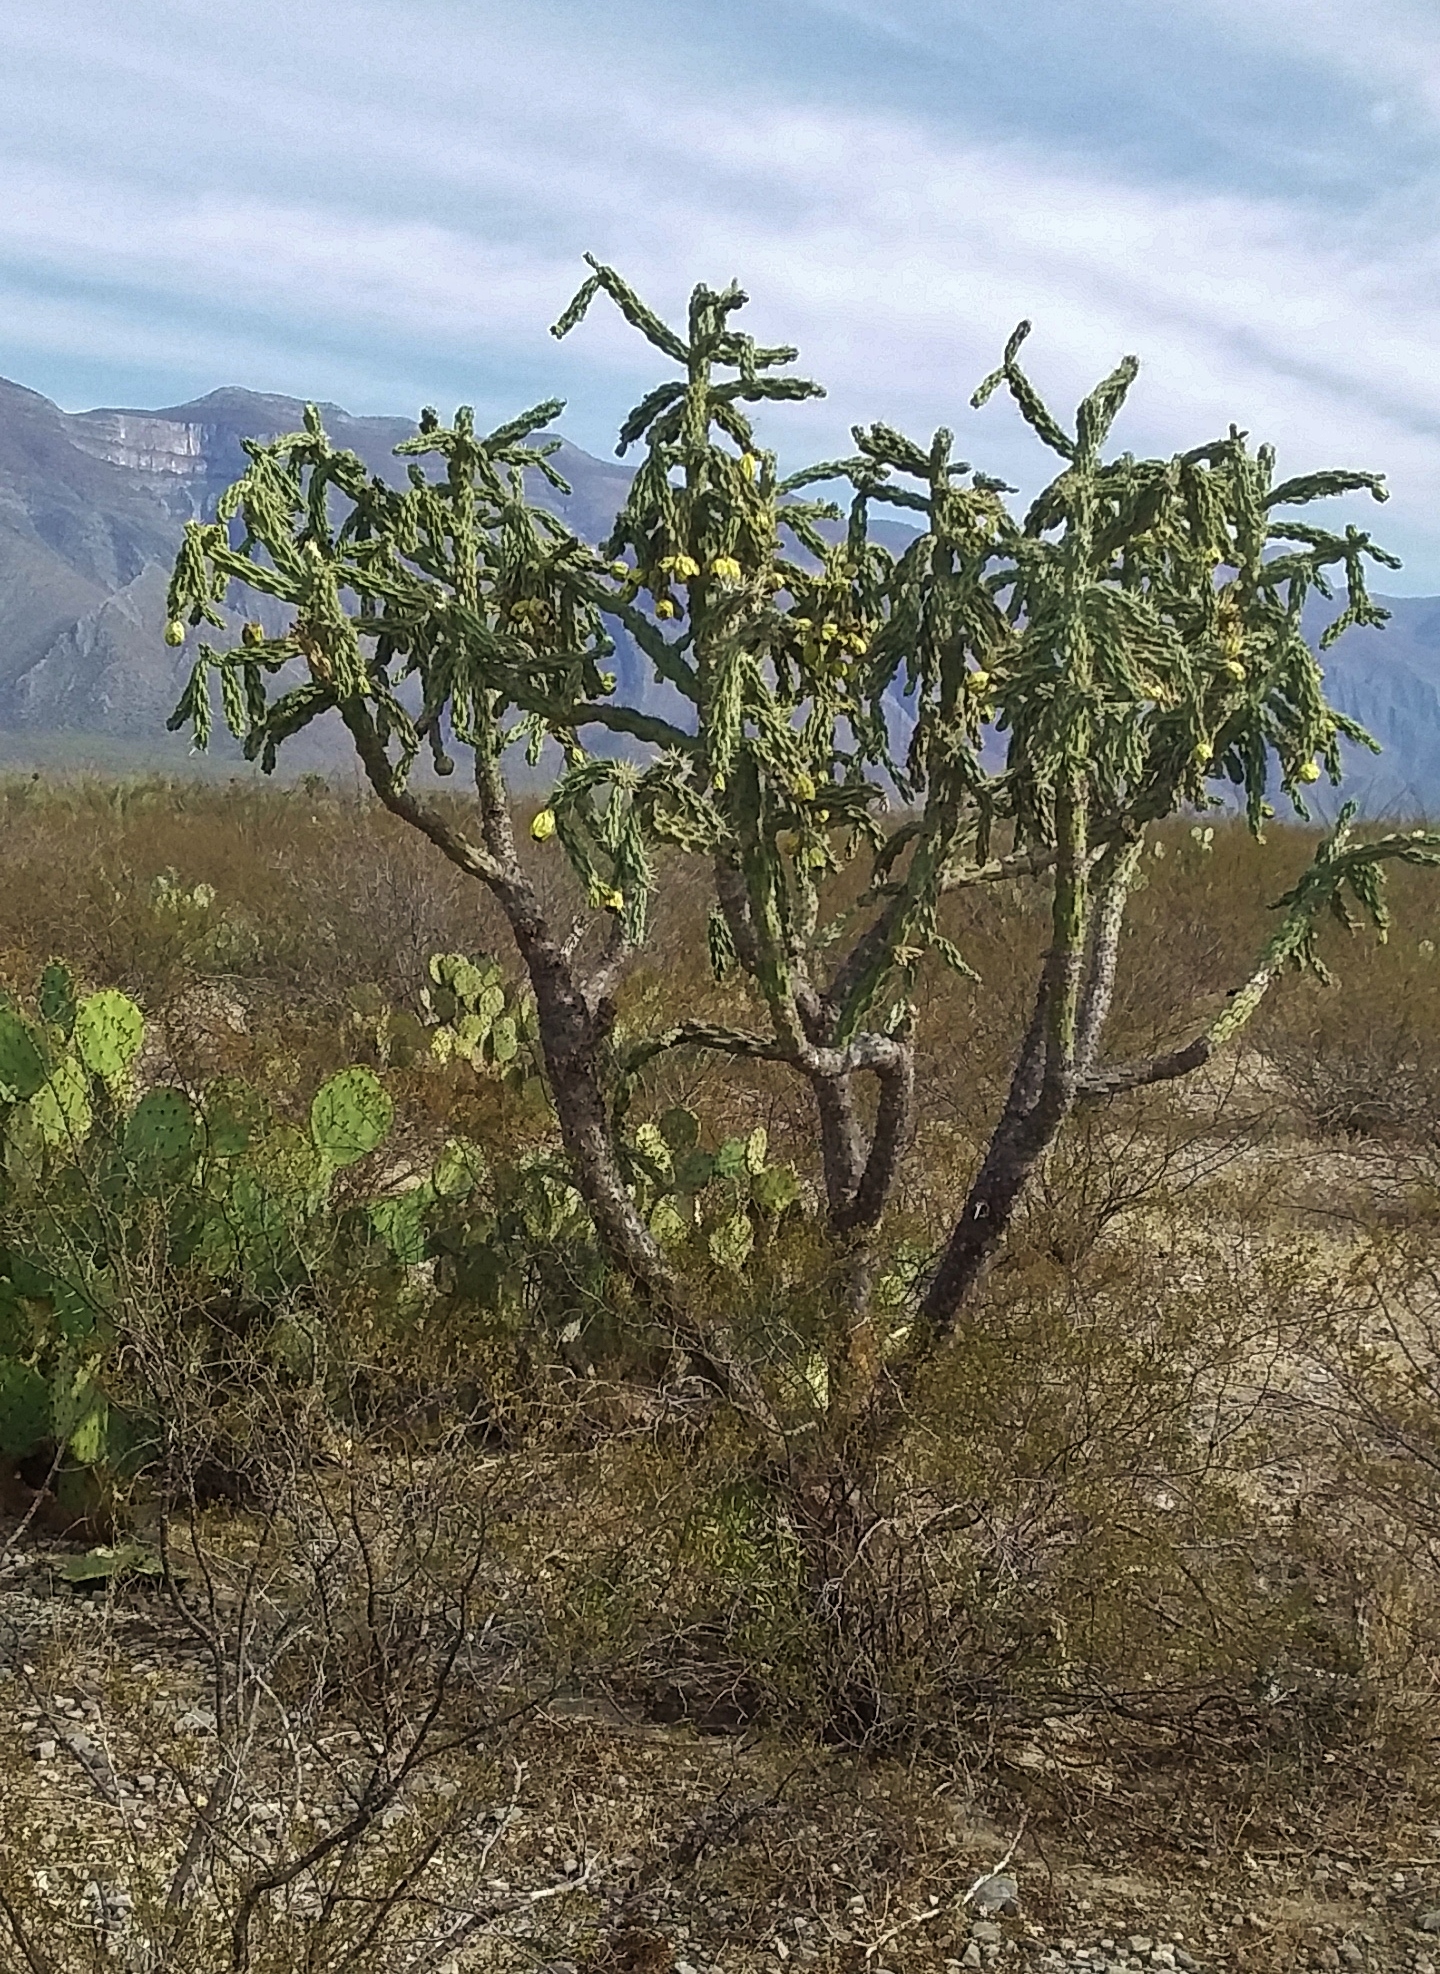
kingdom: Plantae
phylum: Tracheophyta
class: Magnoliopsida
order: Caryophyllales
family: Cactaceae
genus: Cylindropuntia
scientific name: Cylindropuntia imbricata
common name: Candelabrum cactus
